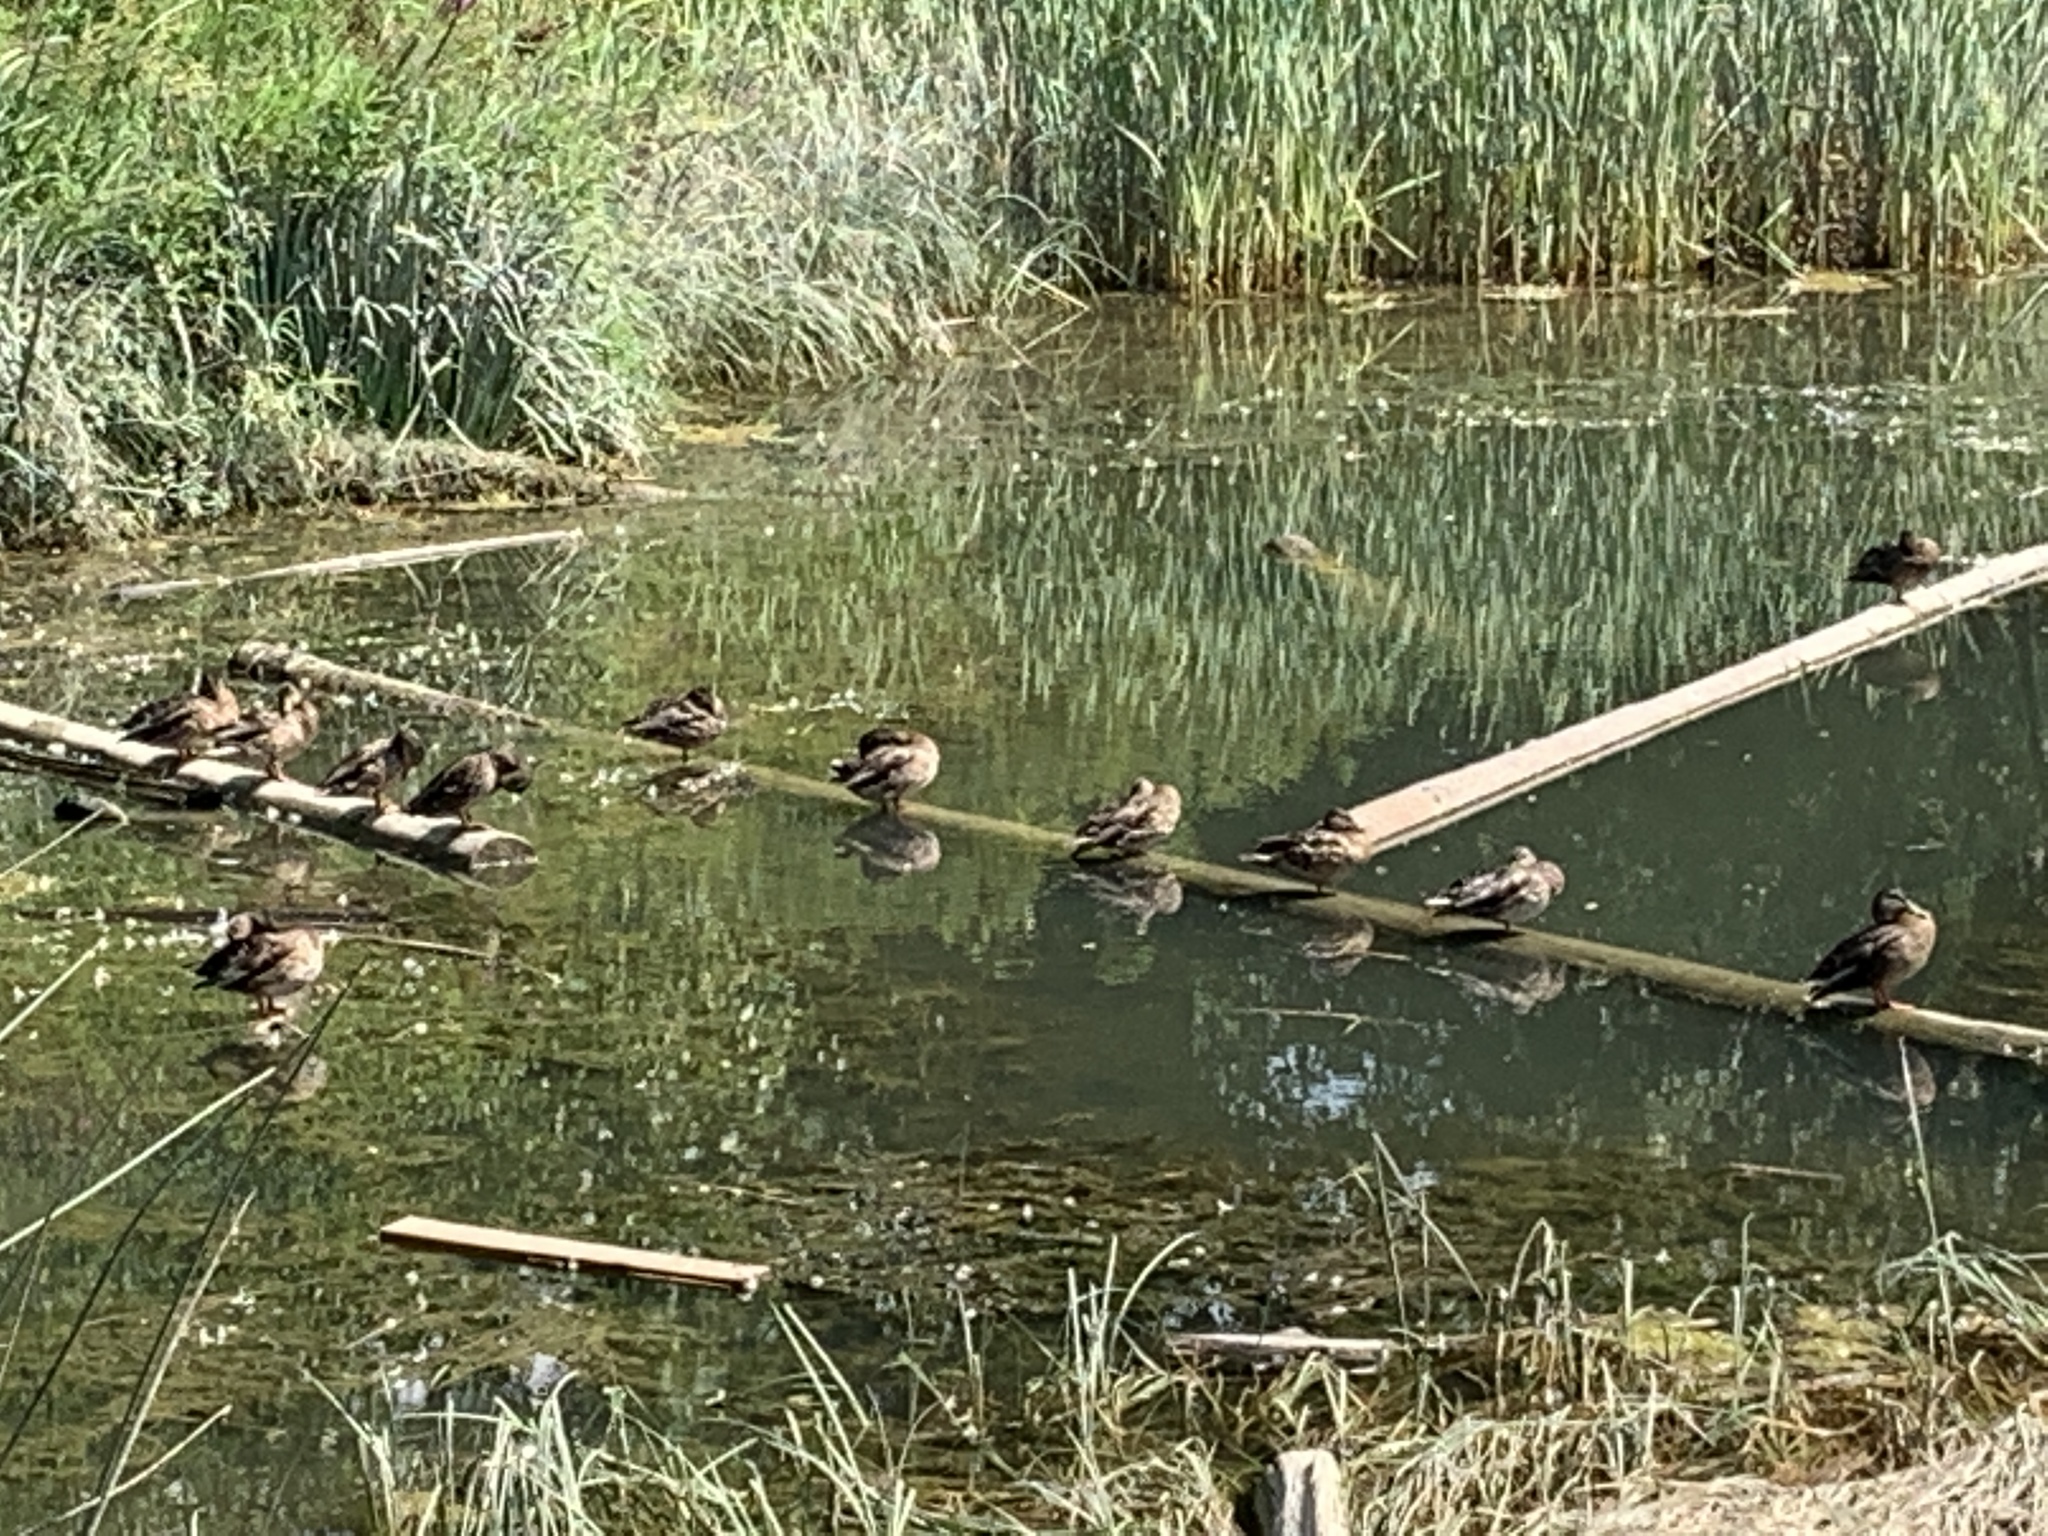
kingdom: Animalia
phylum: Chordata
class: Aves
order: Anseriformes
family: Anatidae
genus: Anas
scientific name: Anas platyrhynchos
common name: Mallard
